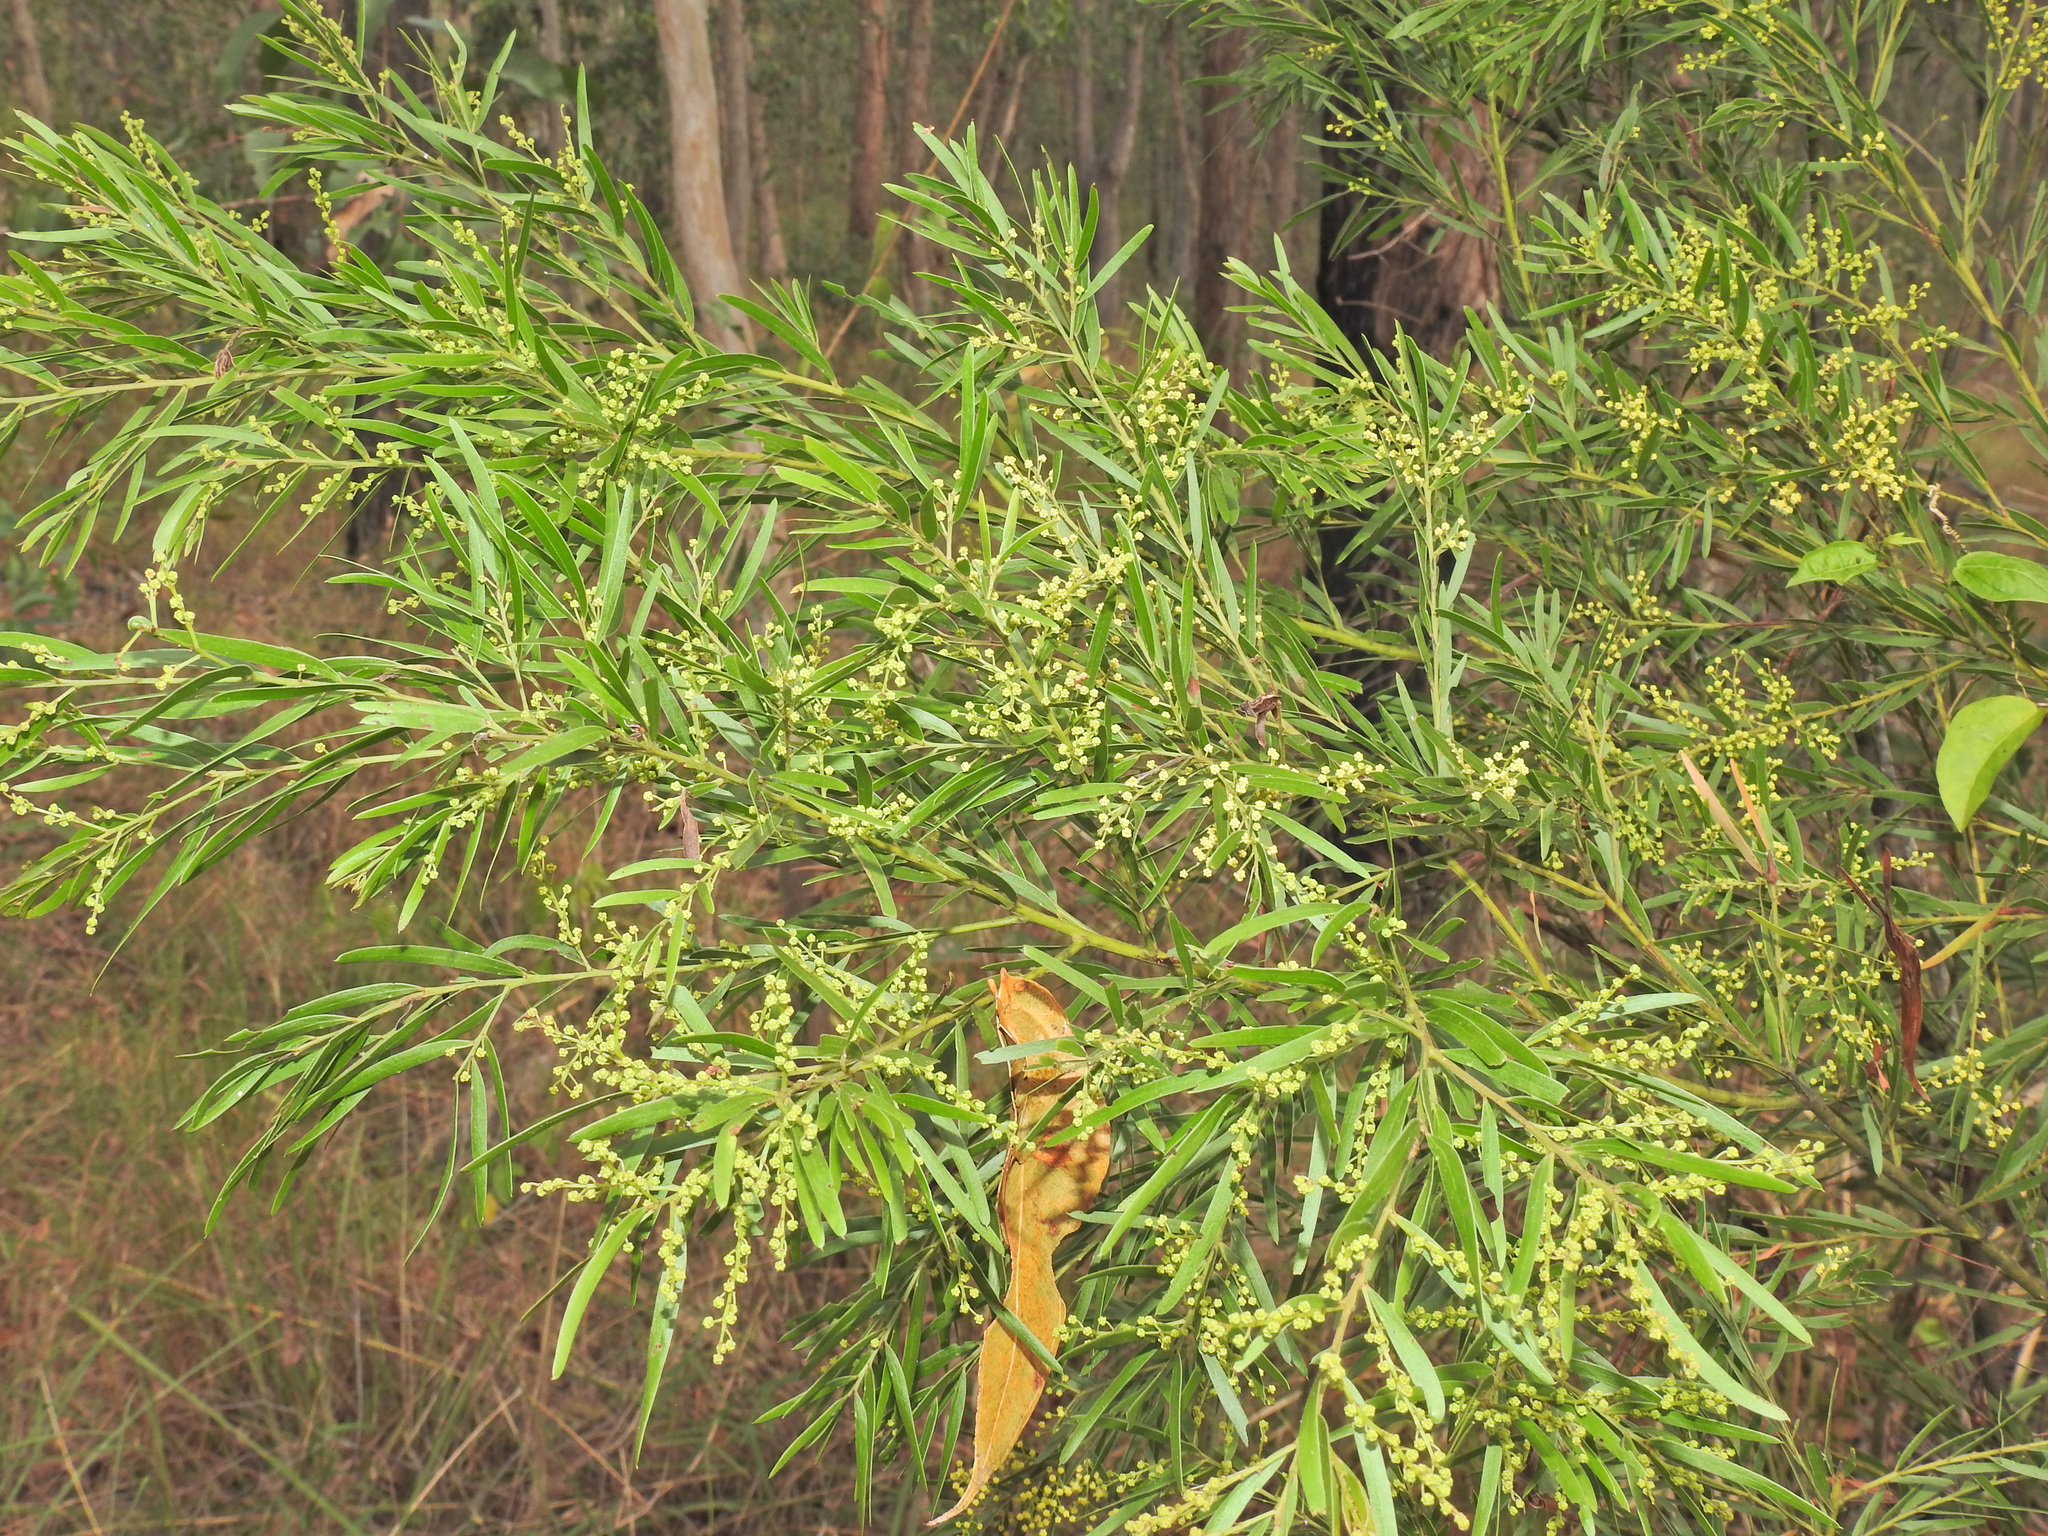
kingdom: Plantae
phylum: Tracheophyta
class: Magnoliopsida
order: Fabales
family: Fabaceae
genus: Acacia
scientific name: Acacia fimbriata
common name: Brisbane golden wattle
